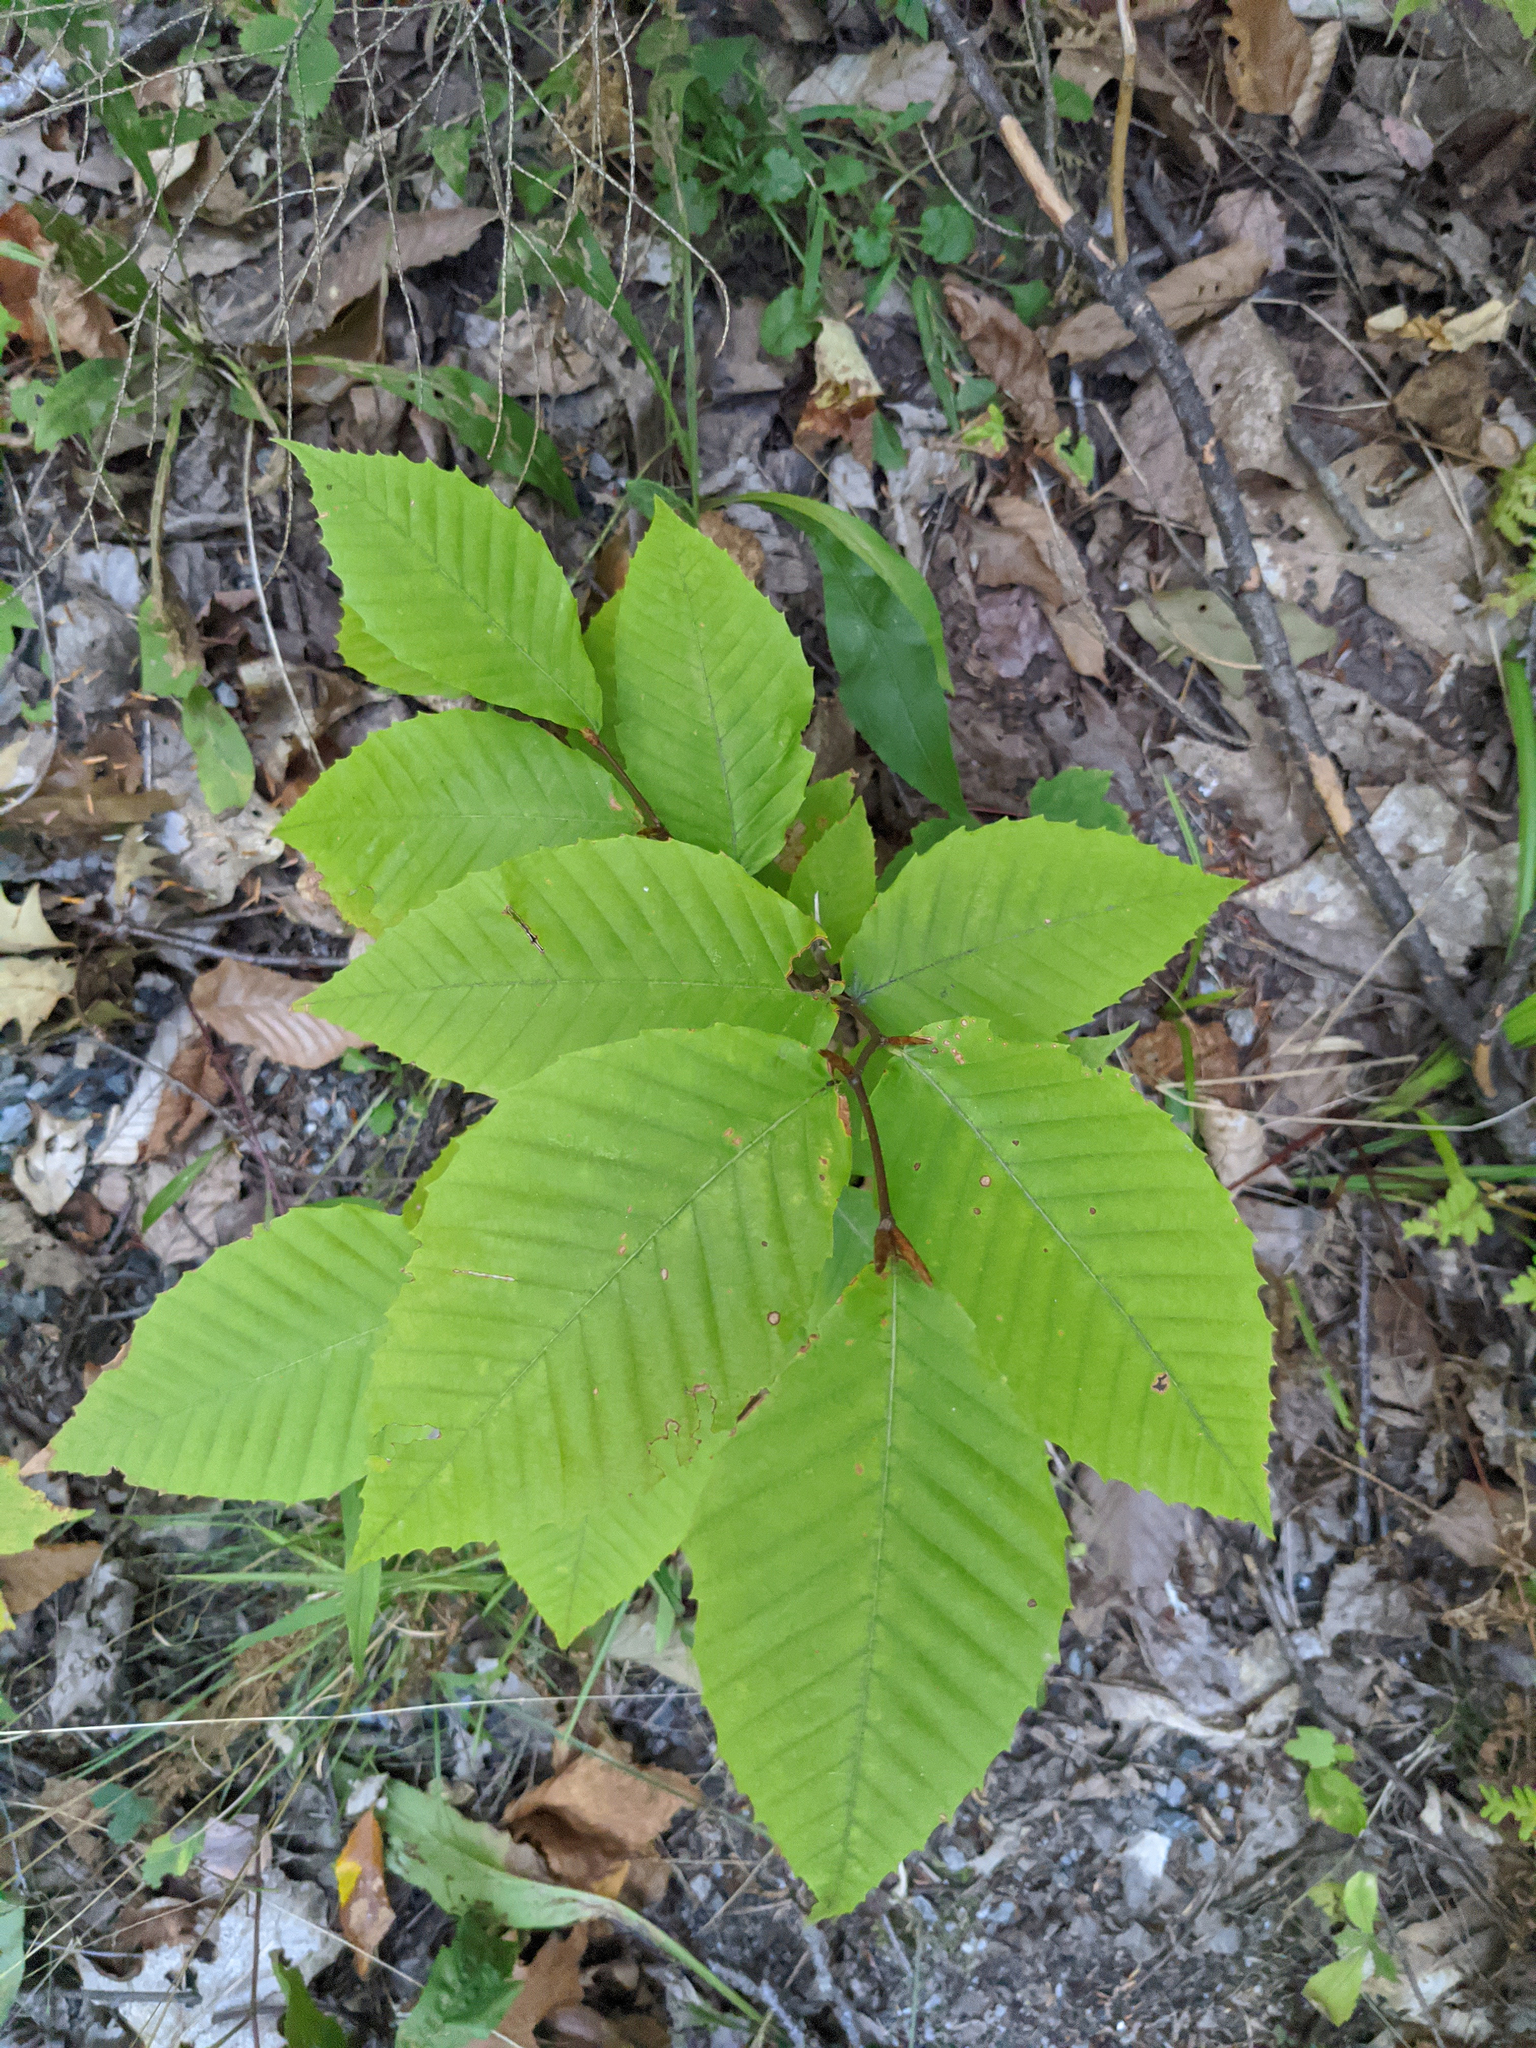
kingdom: Plantae
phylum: Tracheophyta
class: Magnoliopsida
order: Fagales
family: Fagaceae
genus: Fagus
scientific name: Fagus grandifolia
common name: American beech
